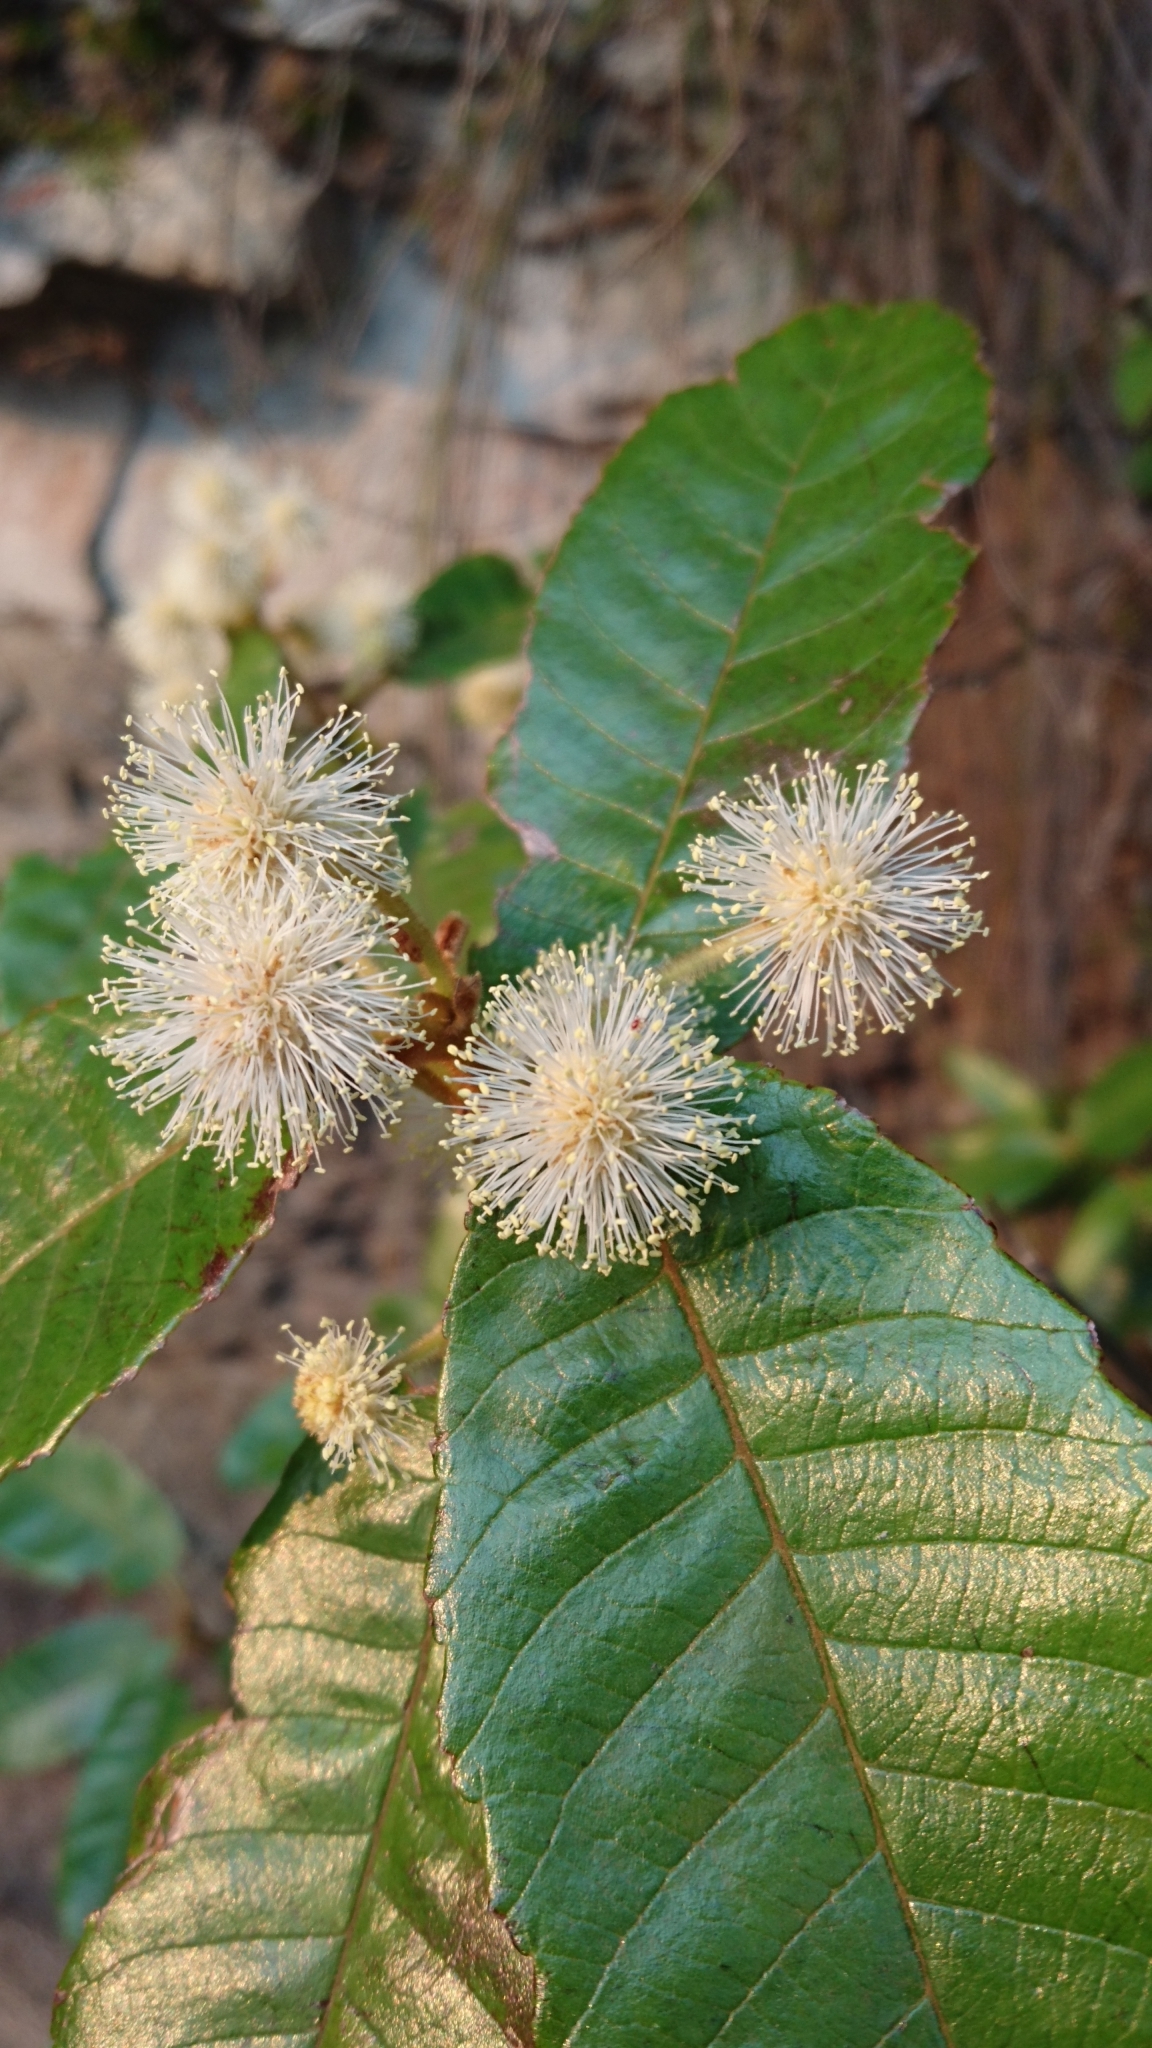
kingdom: Plantae
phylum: Tracheophyta
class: Magnoliopsida
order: Oxalidales
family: Cunoniaceae
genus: Callicoma
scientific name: Callicoma serratifolia
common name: Black wattle
